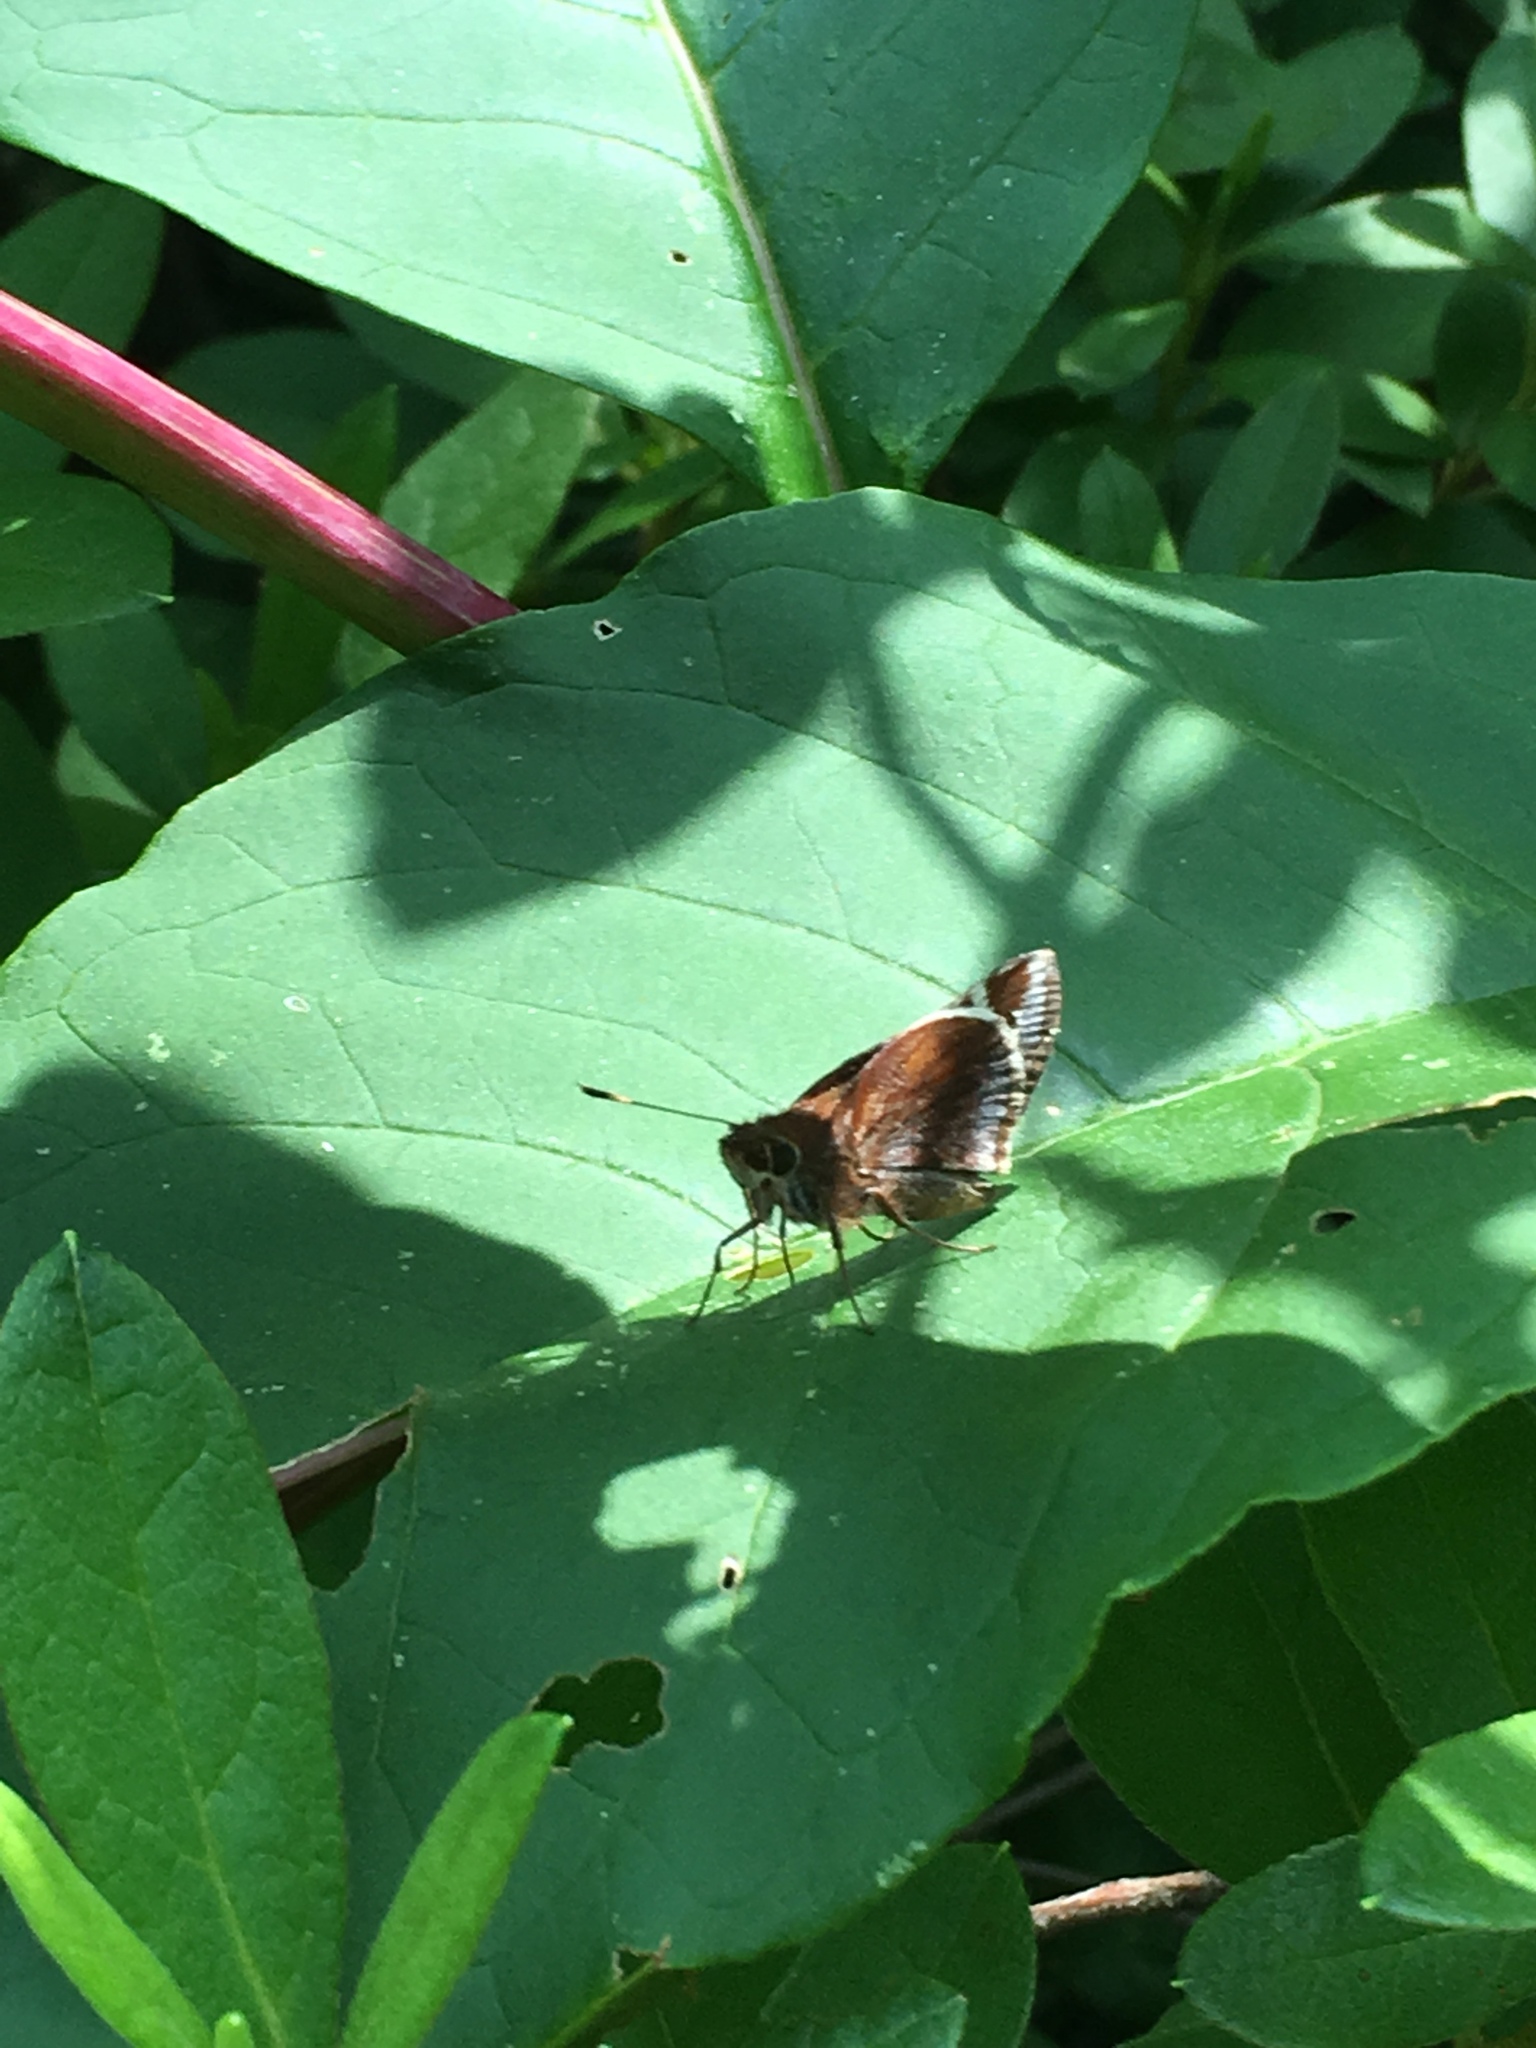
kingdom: Animalia
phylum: Arthropoda
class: Insecta
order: Lepidoptera
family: Hesperiidae
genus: Lon
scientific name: Lon zabulon
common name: Zabulon skipper
